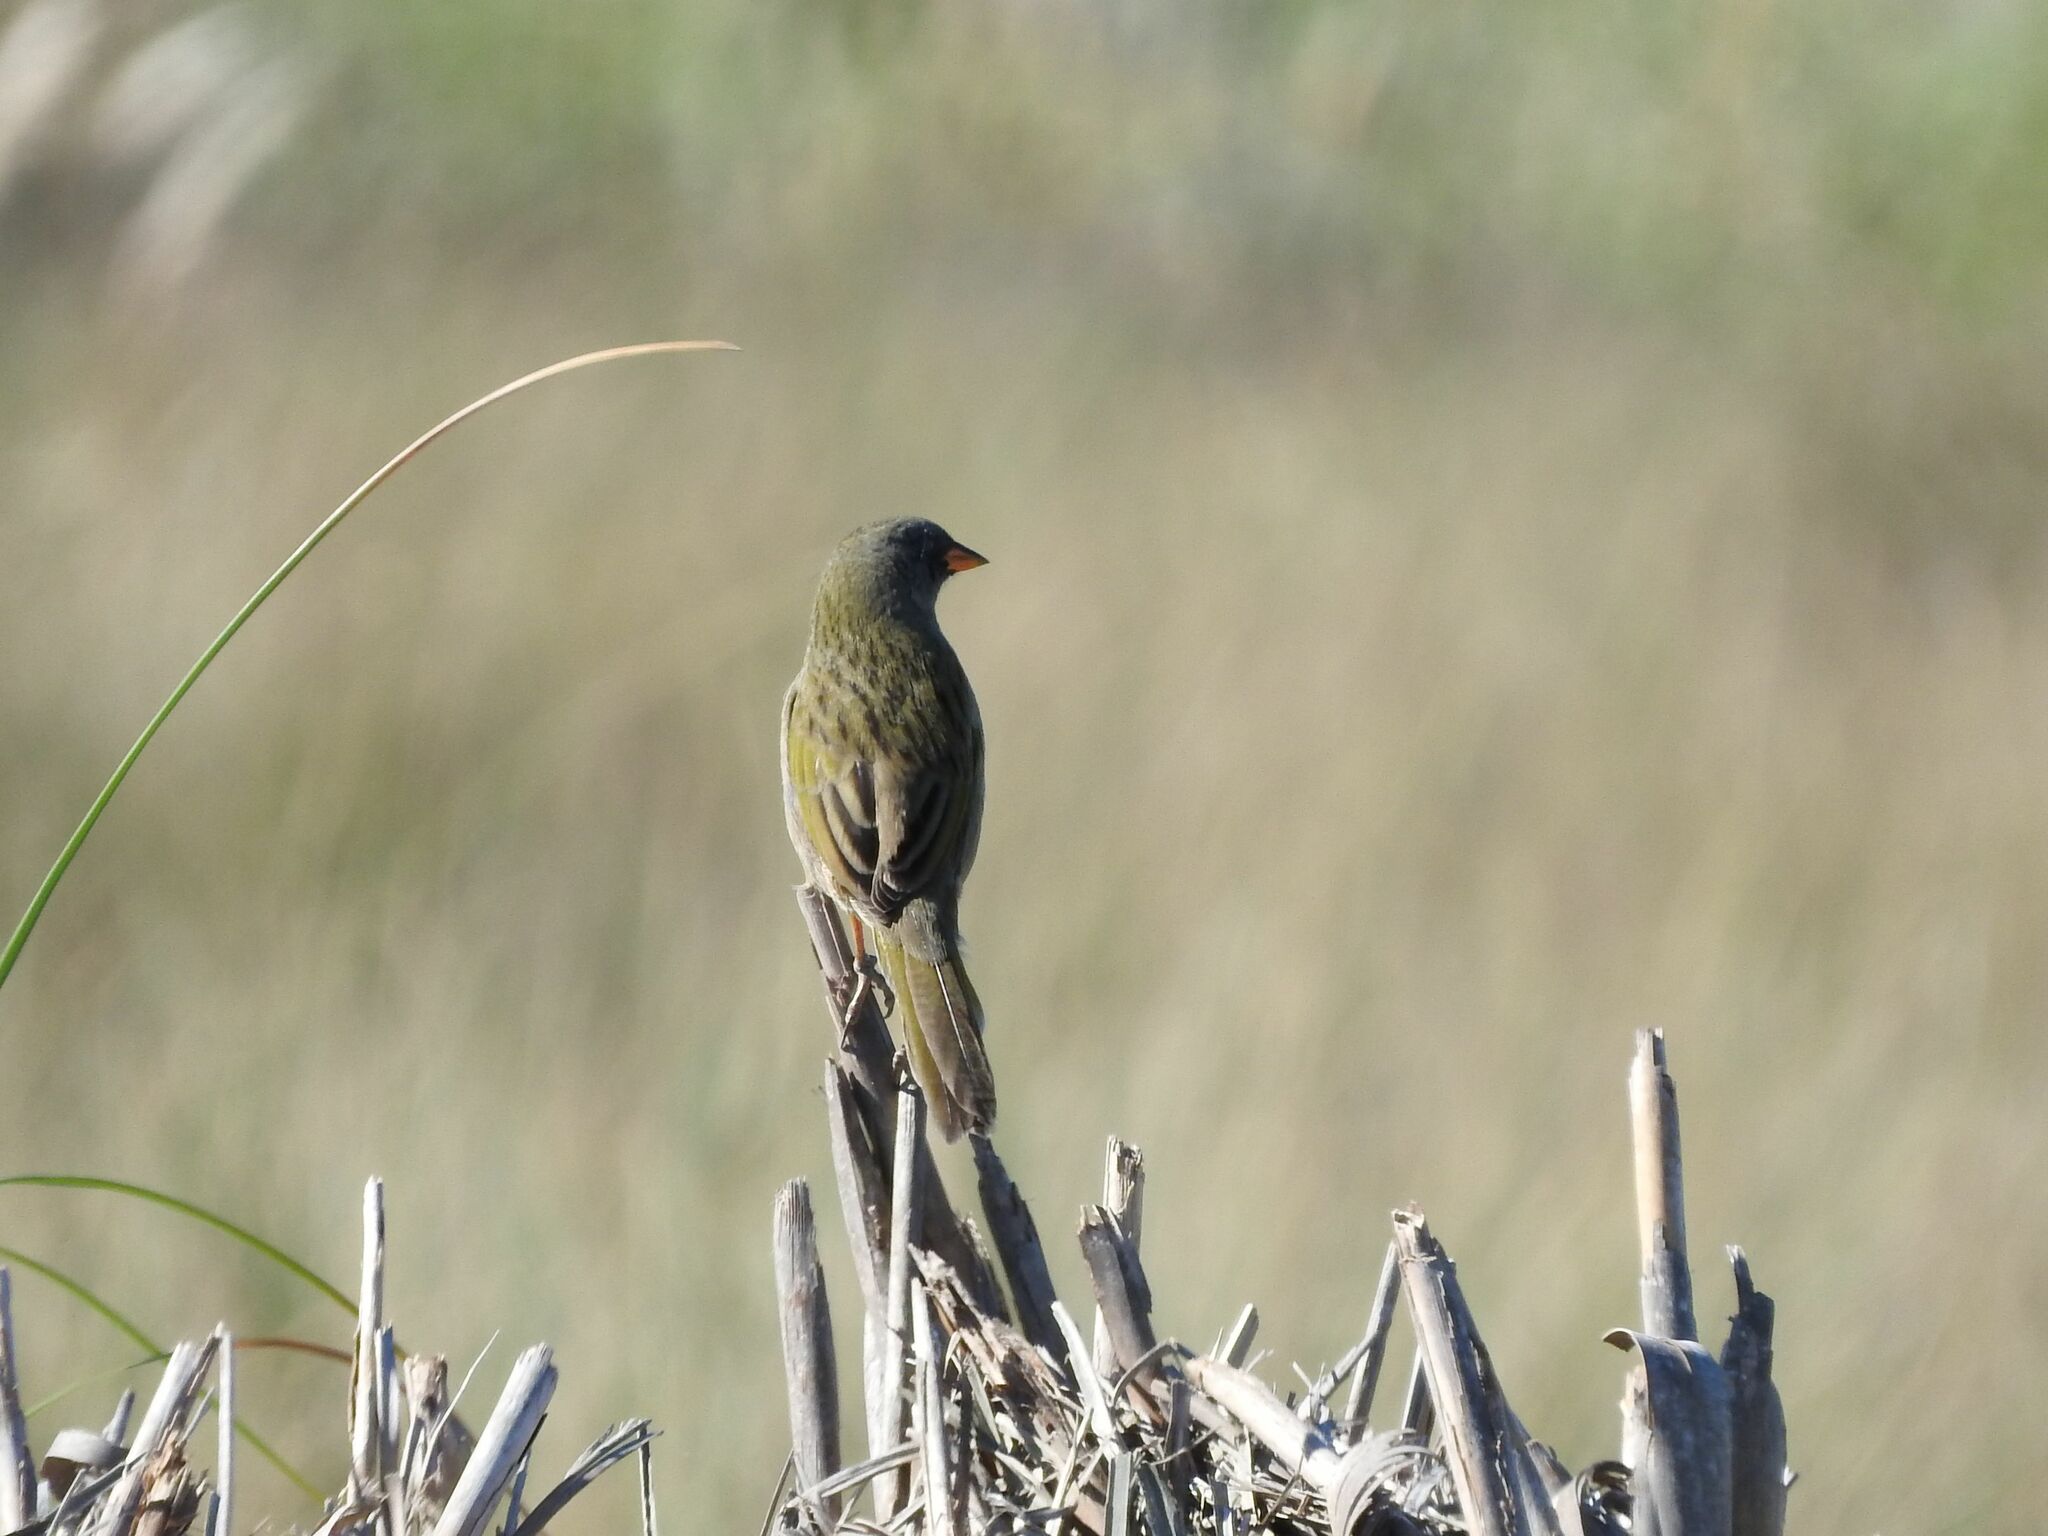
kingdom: Animalia
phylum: Chordata
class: Aves
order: Passeriformes
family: Thraupidae
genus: Embernagra
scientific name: Embernagra platensis
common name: Pampa finch
